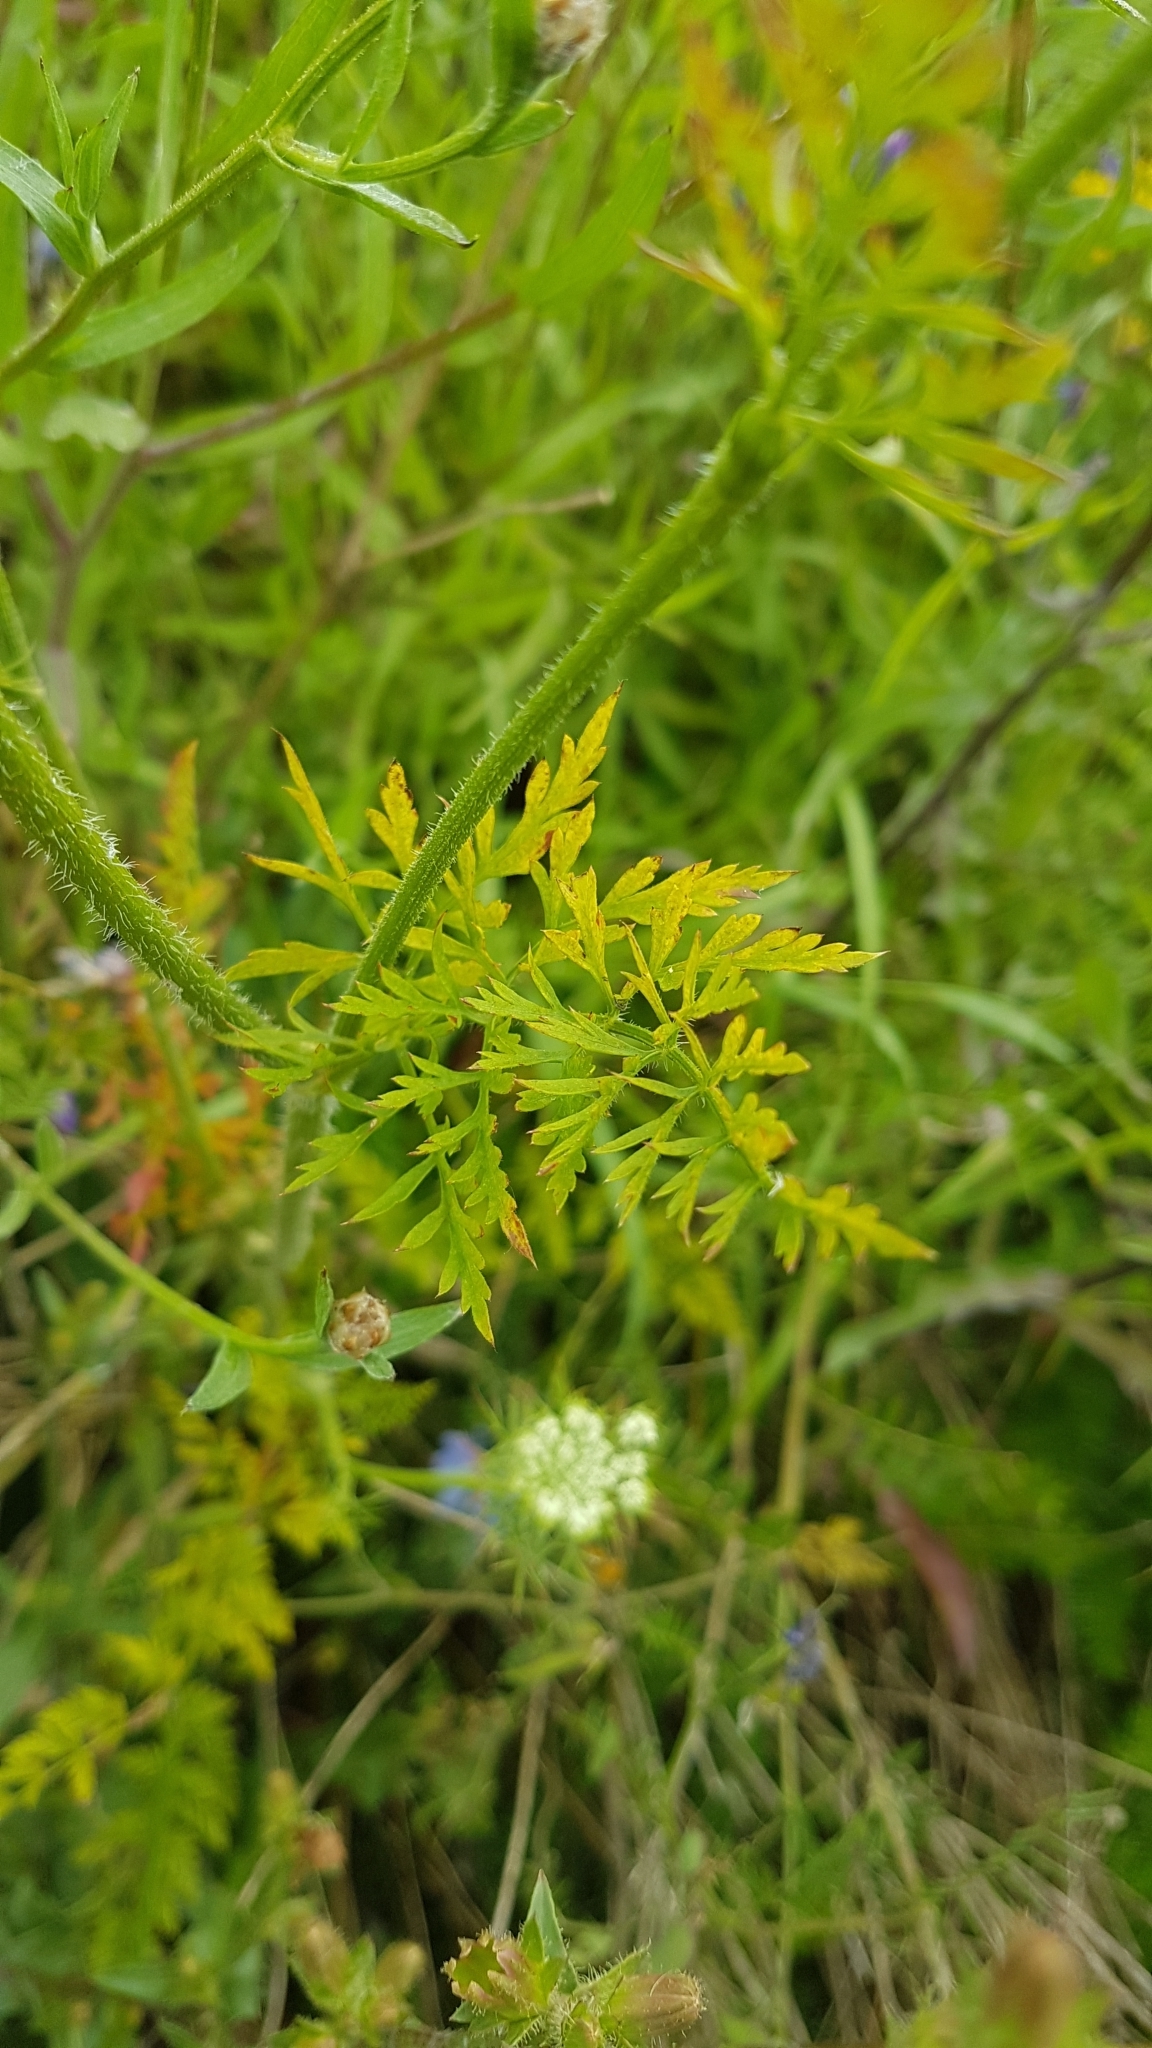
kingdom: Plantae
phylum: Tracheophyta
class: Magnoliopsida
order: Apiales
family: Apiaceae
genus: Daucus
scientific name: Daucus carota
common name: Wild carrot
